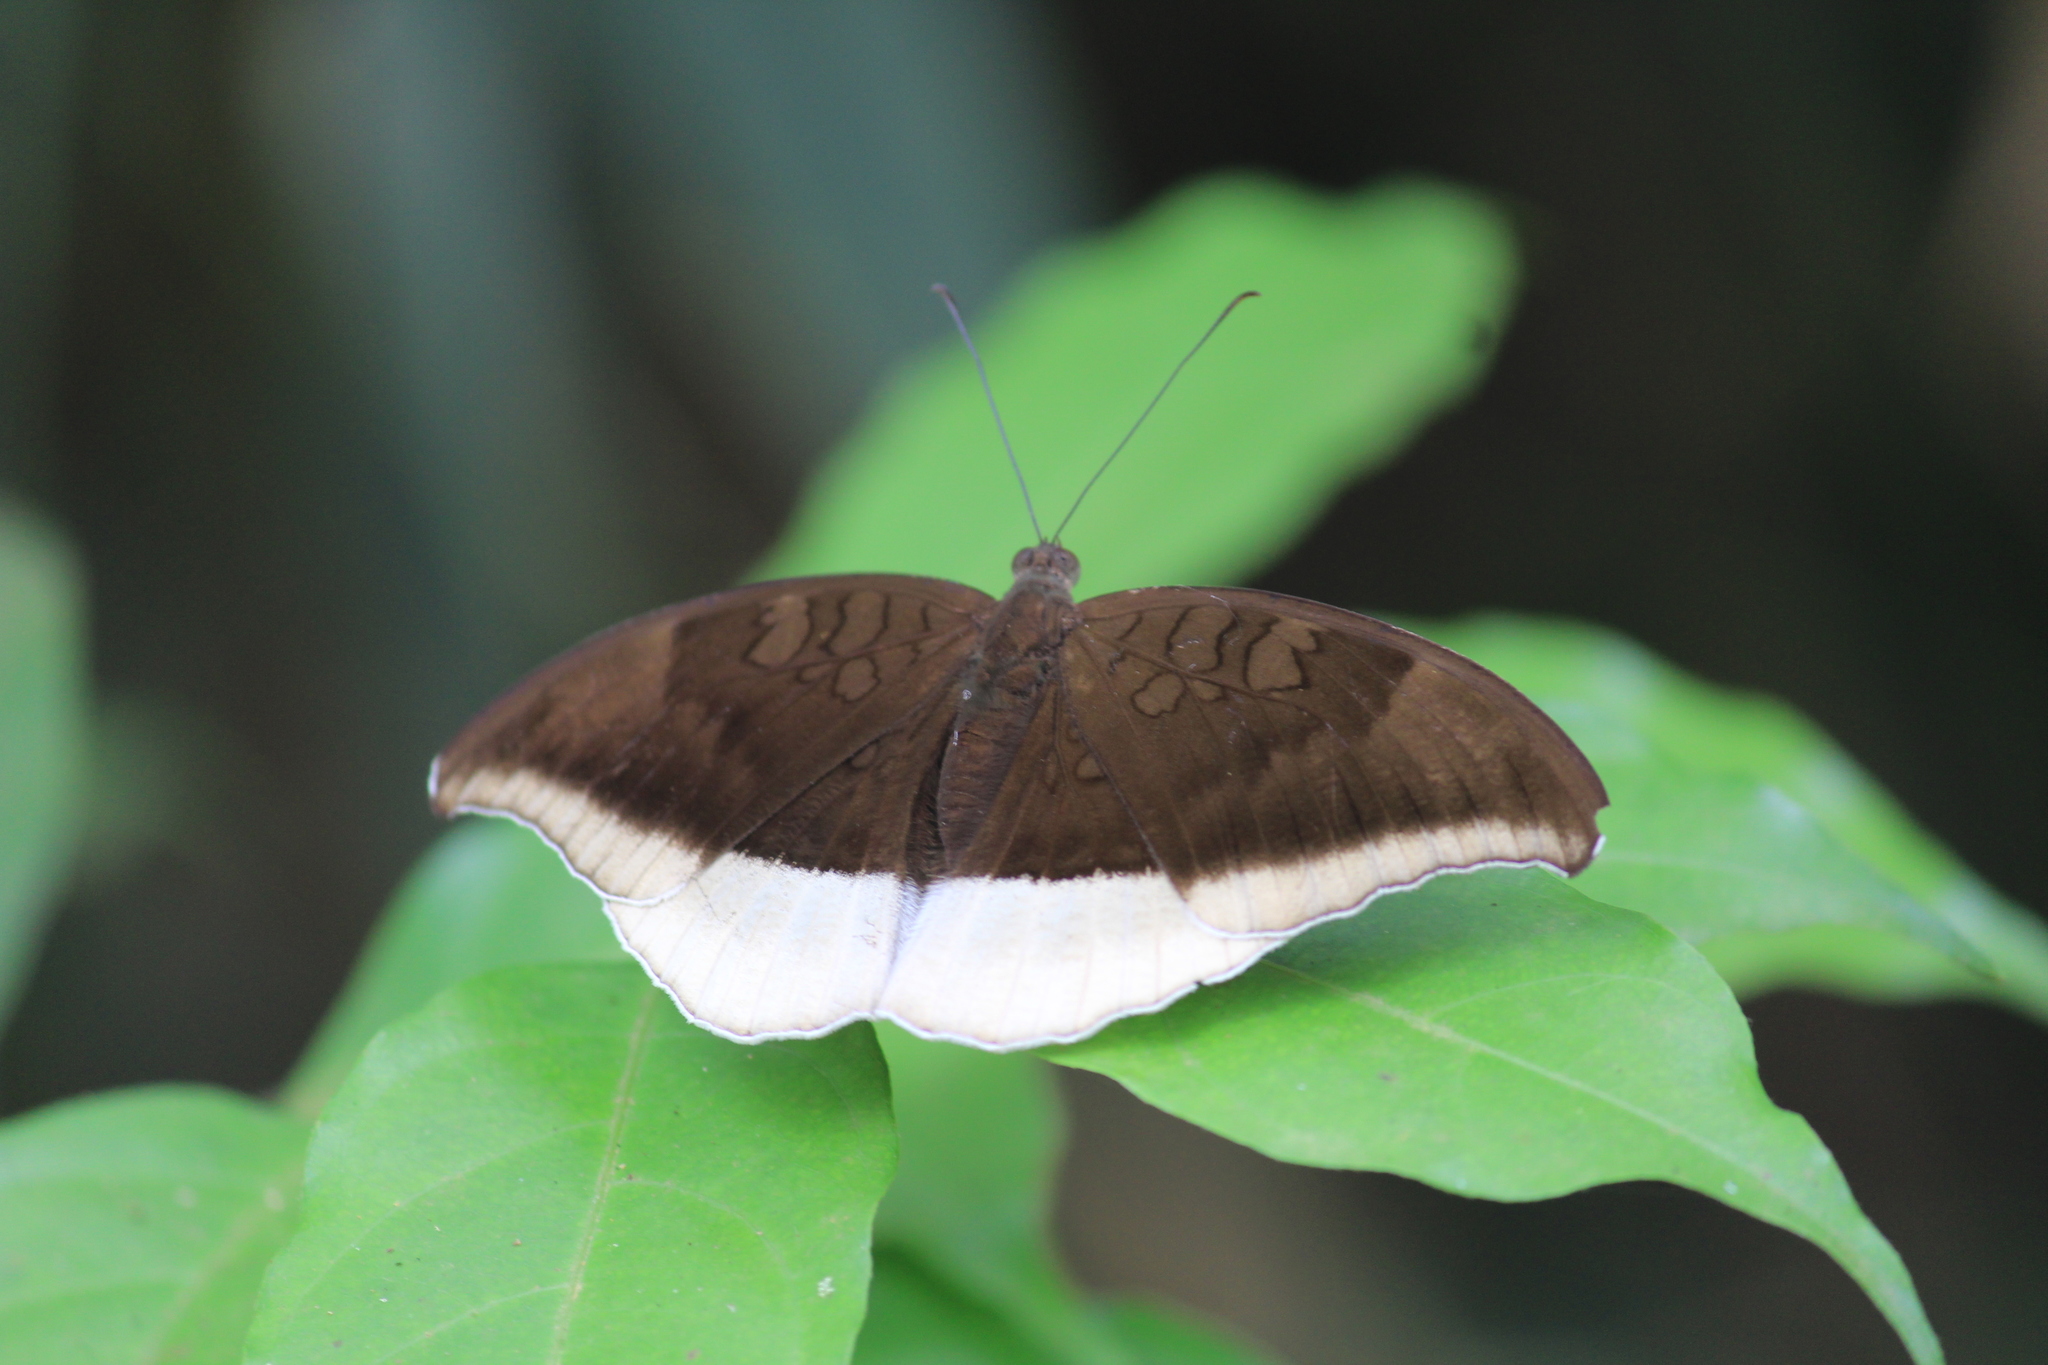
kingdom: Animalia
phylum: Arthropoda
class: Insecta
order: Lepidoptera
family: Nymphalidae
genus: Tanaecia
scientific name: Tanaecia lepidea
